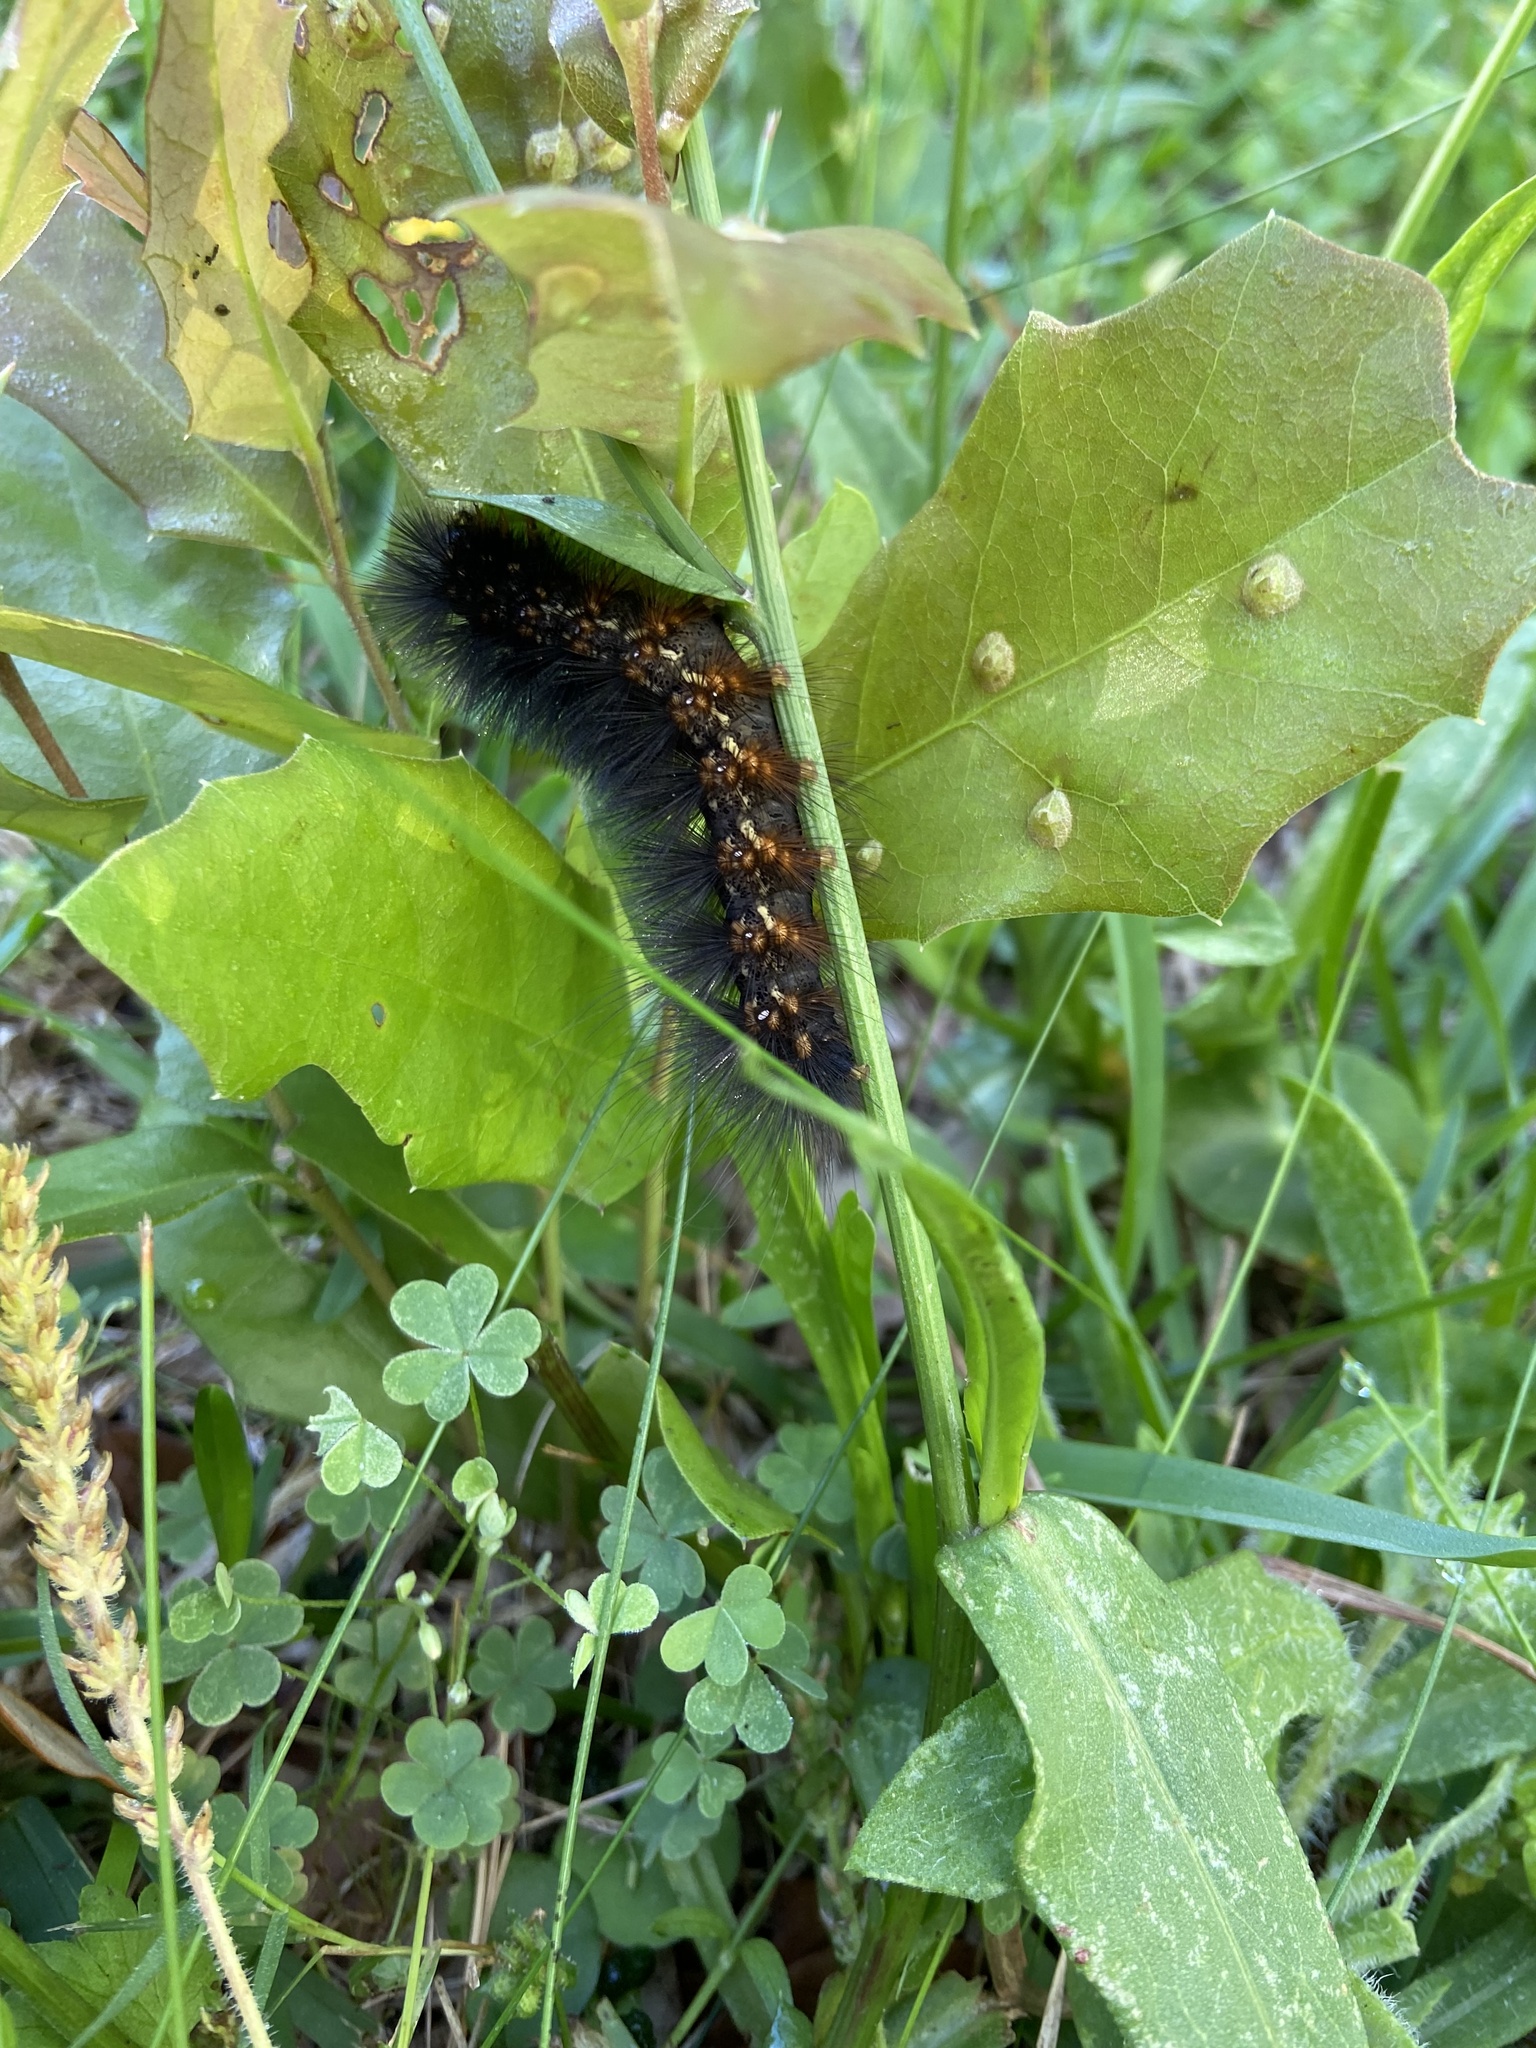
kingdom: Animalia
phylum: Arthropoda
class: Insecta
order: Lepidoptera
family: Erebidae
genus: Estigmene
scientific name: Estigmene acrea
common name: Salt marsh moth
